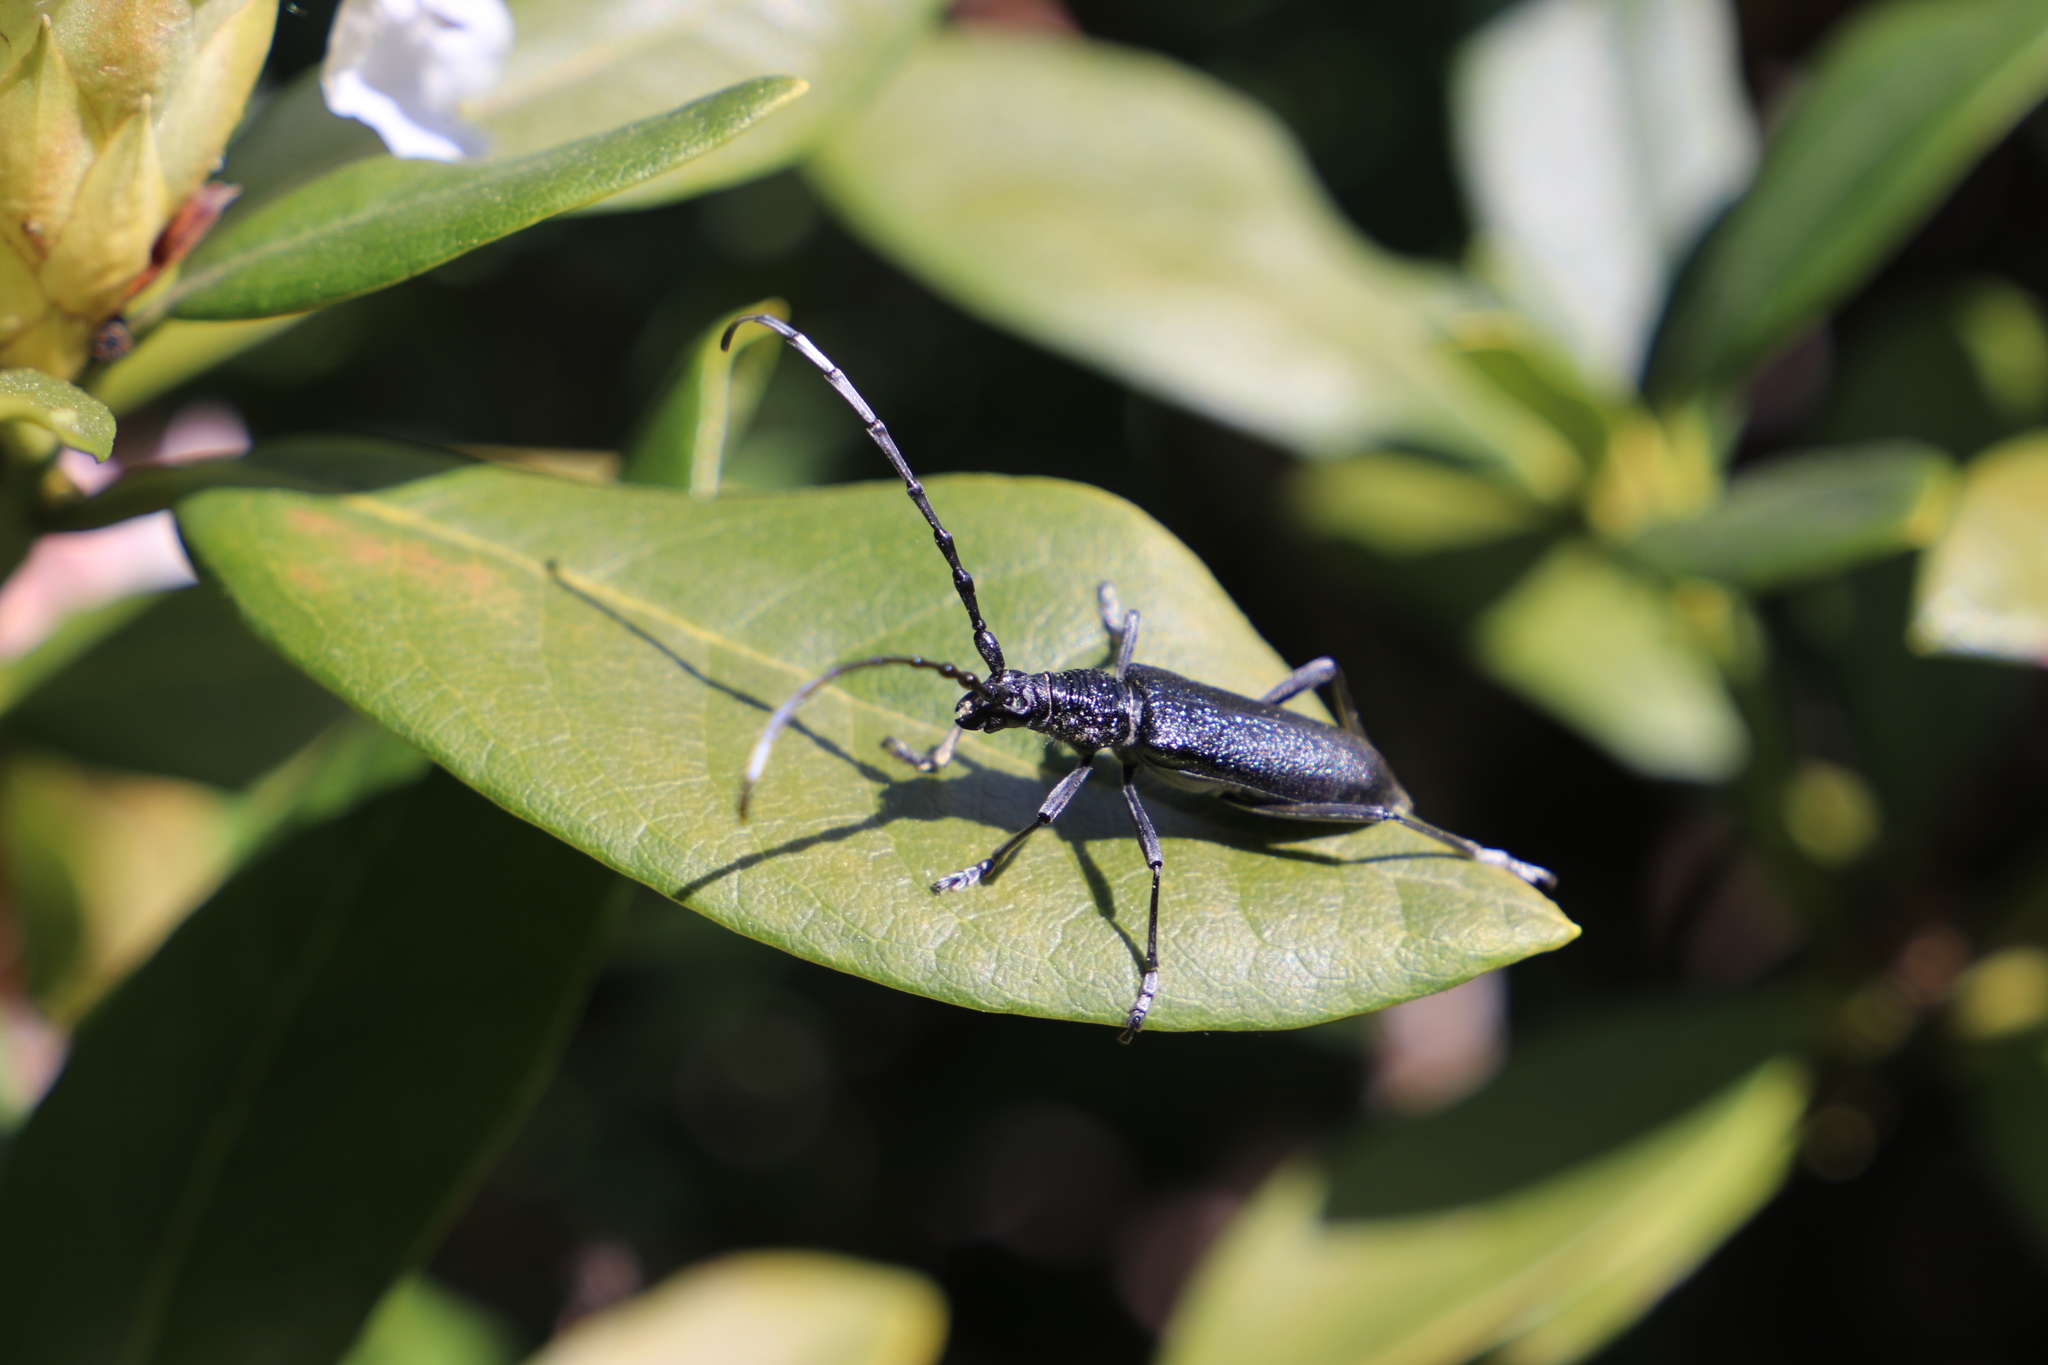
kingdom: Animalia
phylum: Arthropoda
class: Insecta
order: Coleoptera
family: Cerambycidae
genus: Cerambyx
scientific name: Cerambyx scopolii
